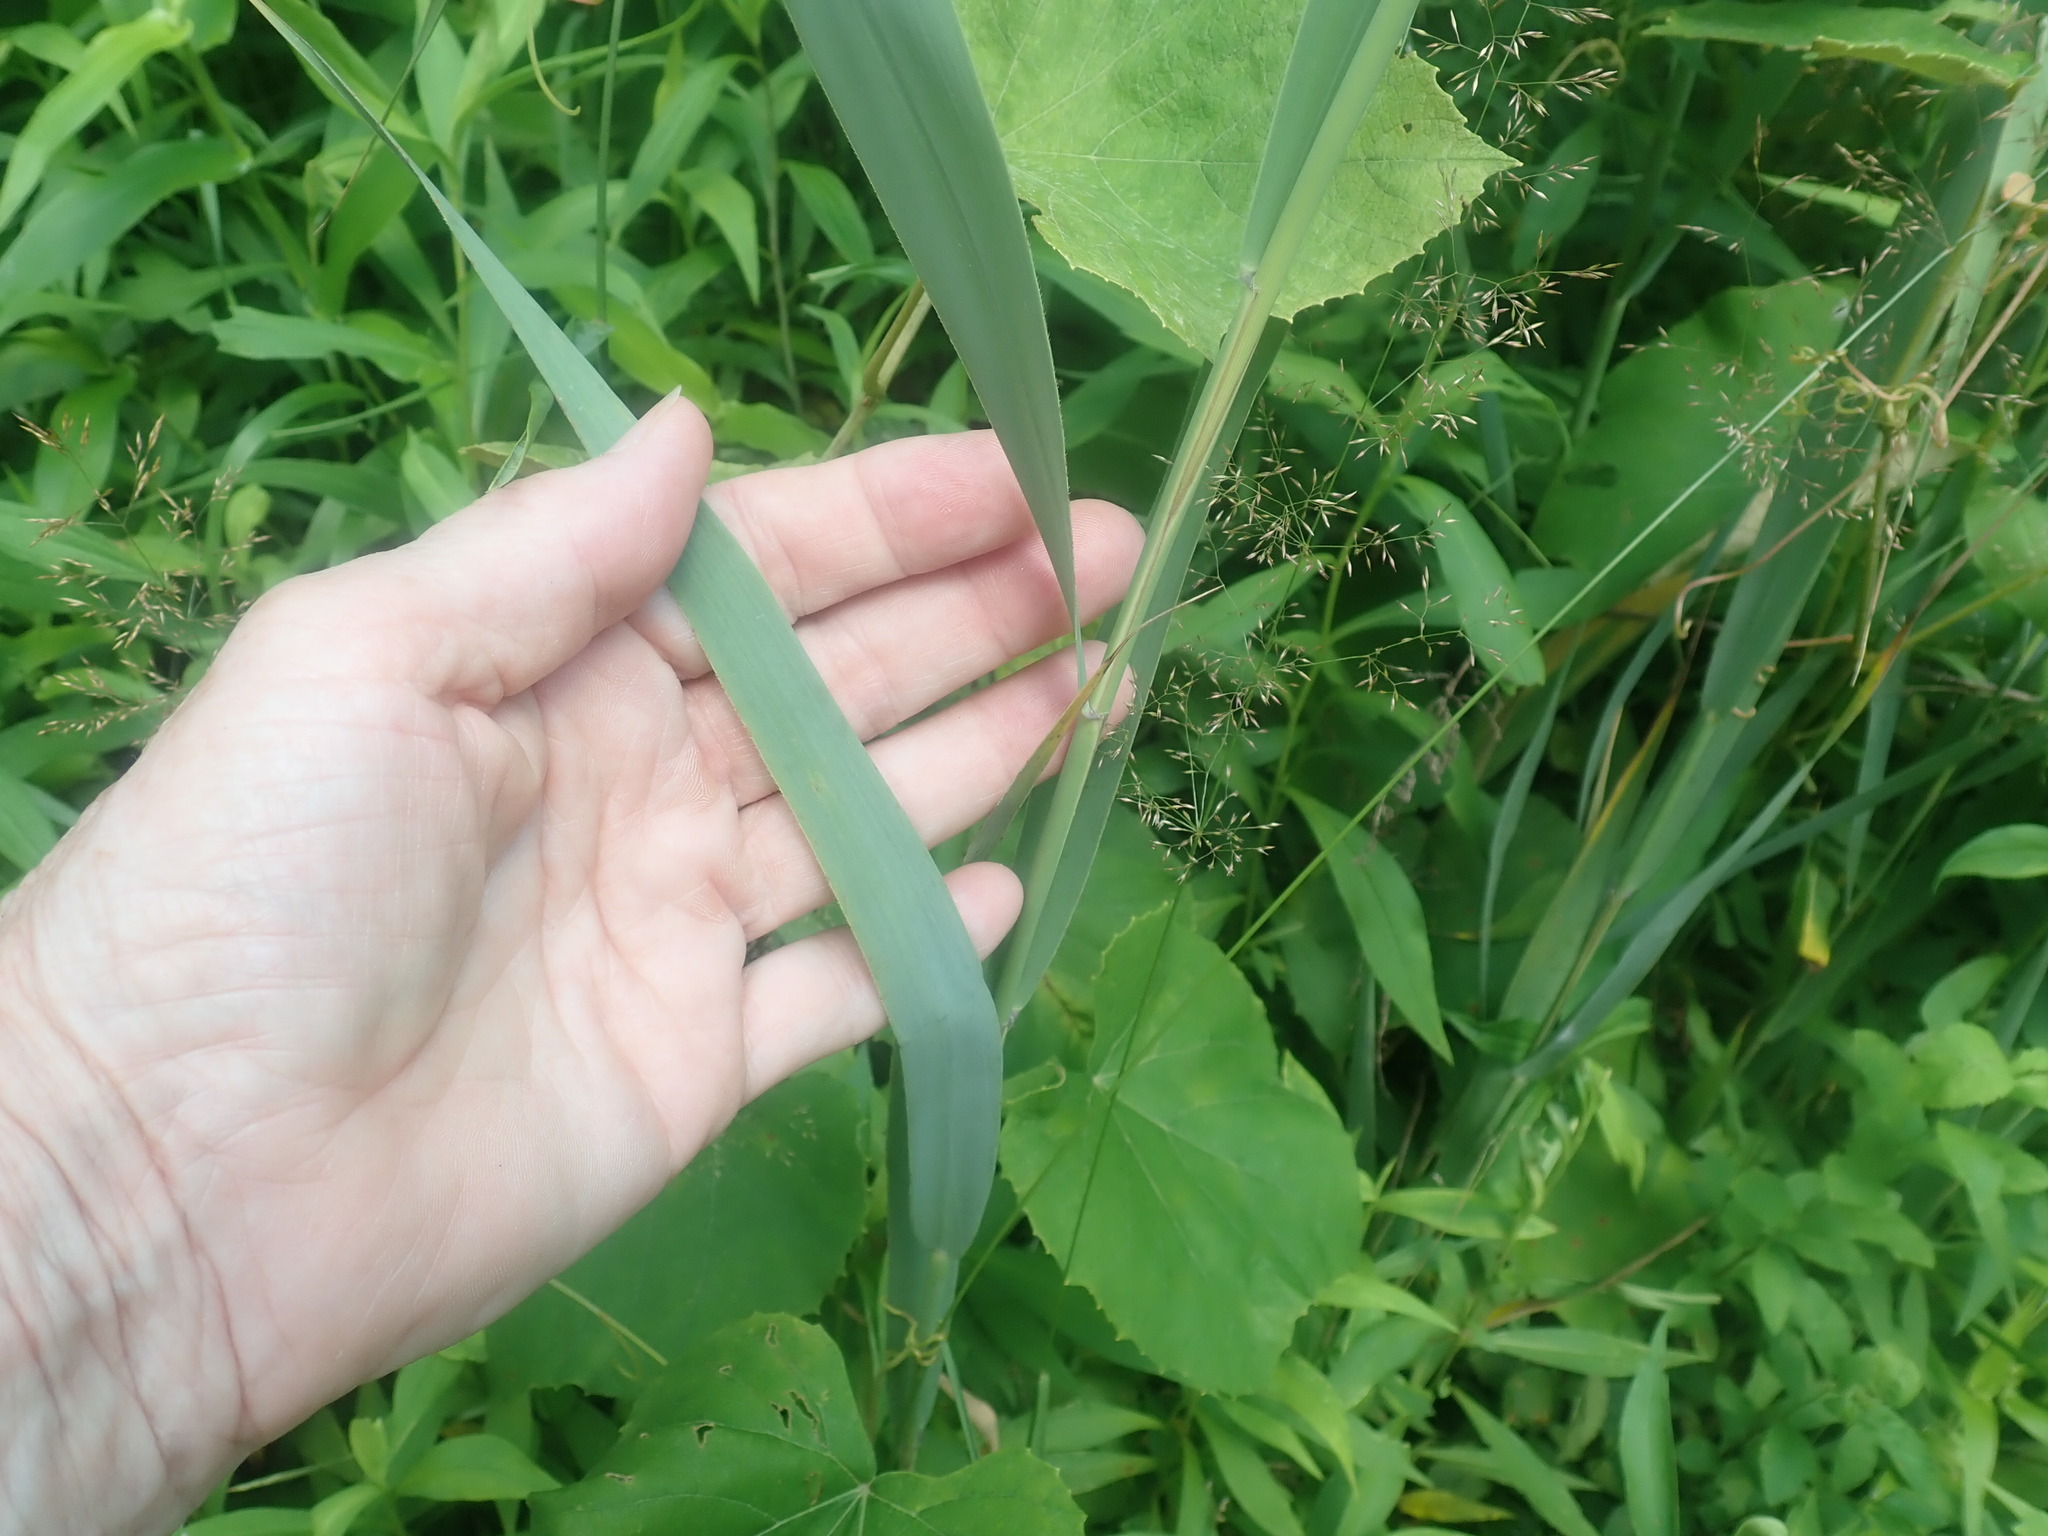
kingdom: Plantae
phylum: Tracheophyta
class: Liliopsida
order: Poales
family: Poaceae
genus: Phragmites
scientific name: Phragmites australis
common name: Common reed
